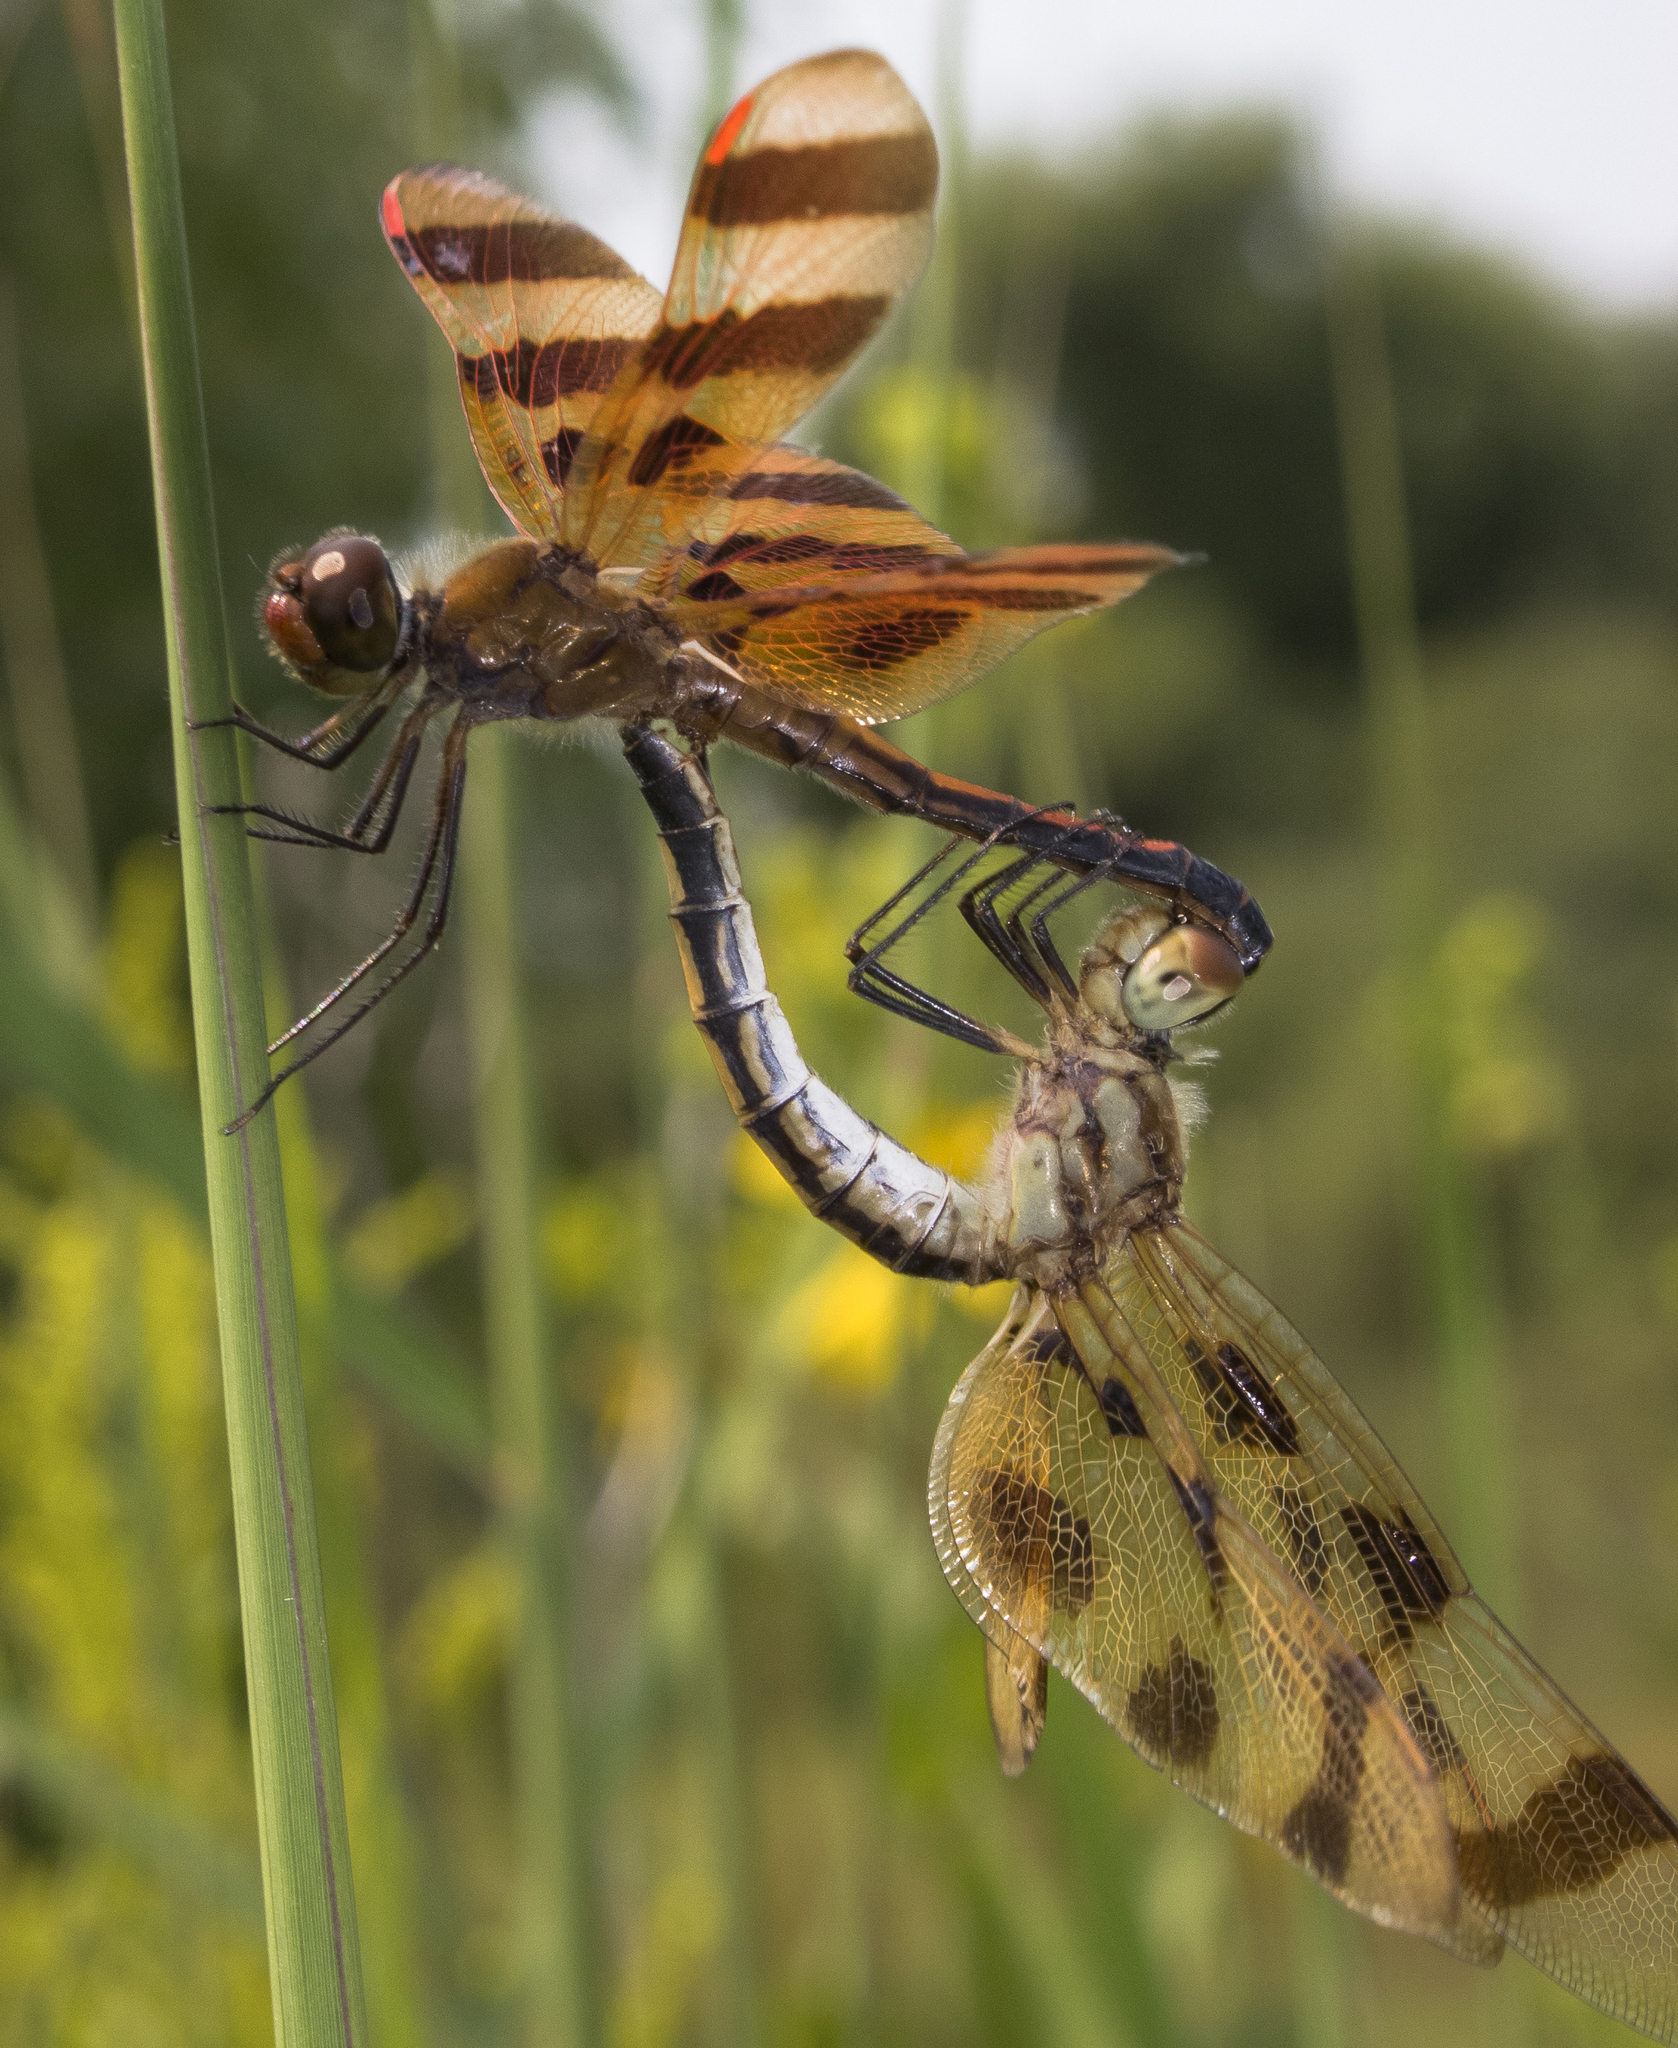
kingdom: Animalia
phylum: Arthropoda
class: Insecta
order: Odonata
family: Libellulidae
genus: Celithemis
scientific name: Celithemis eponina
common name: Halloween pennant
